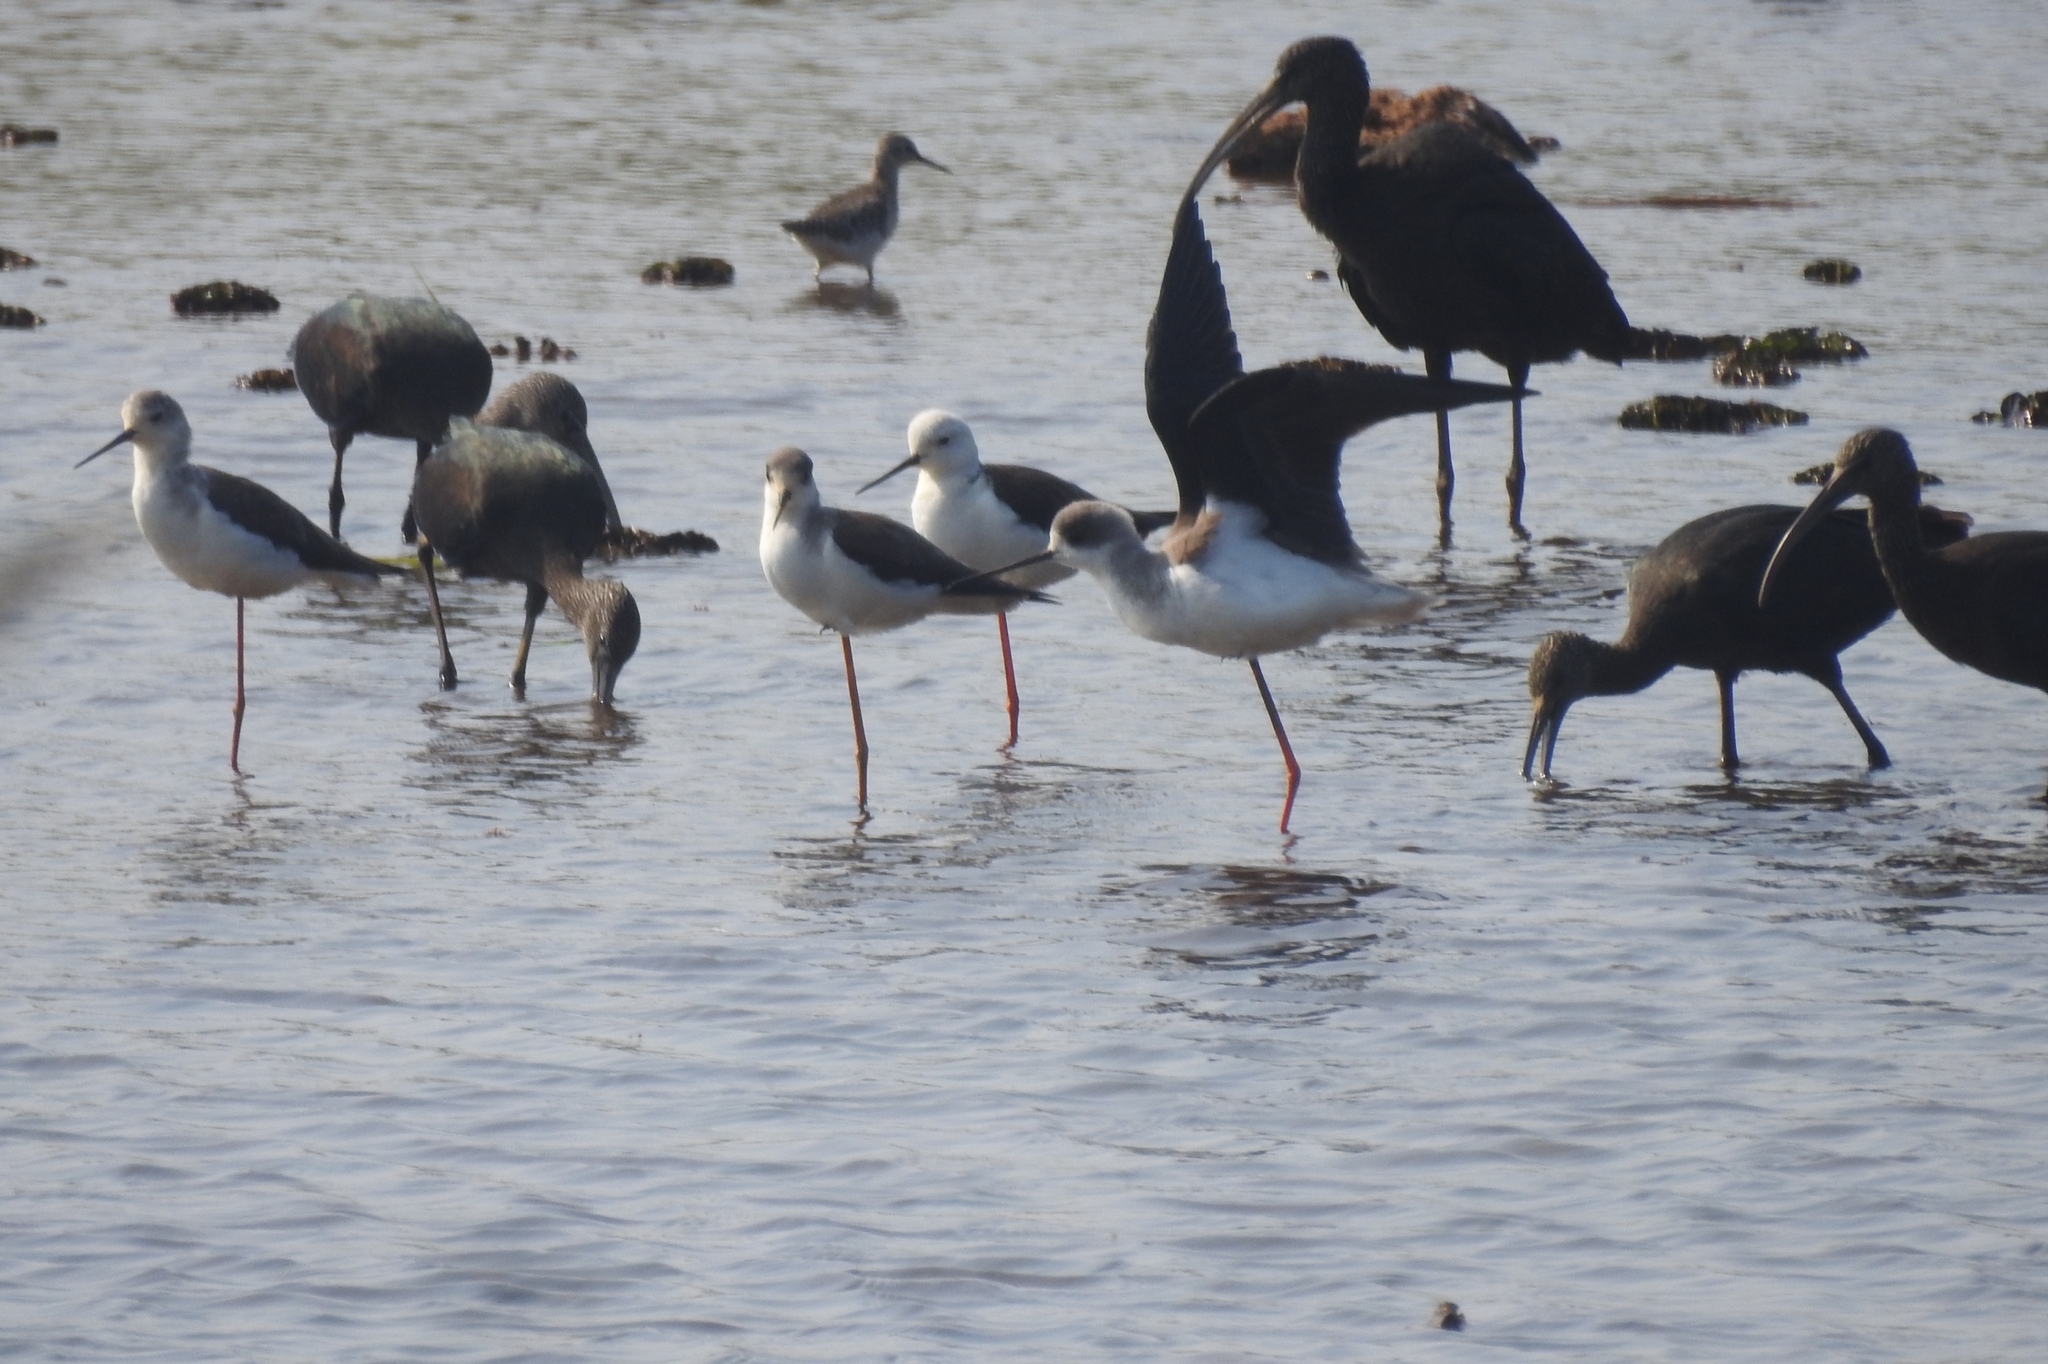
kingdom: Animalia
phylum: Chordata
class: Aves
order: Charadriiformes
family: Recurvirostridae
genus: Himantopus
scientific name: Himantopus himantopus
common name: Black-winged stilt
